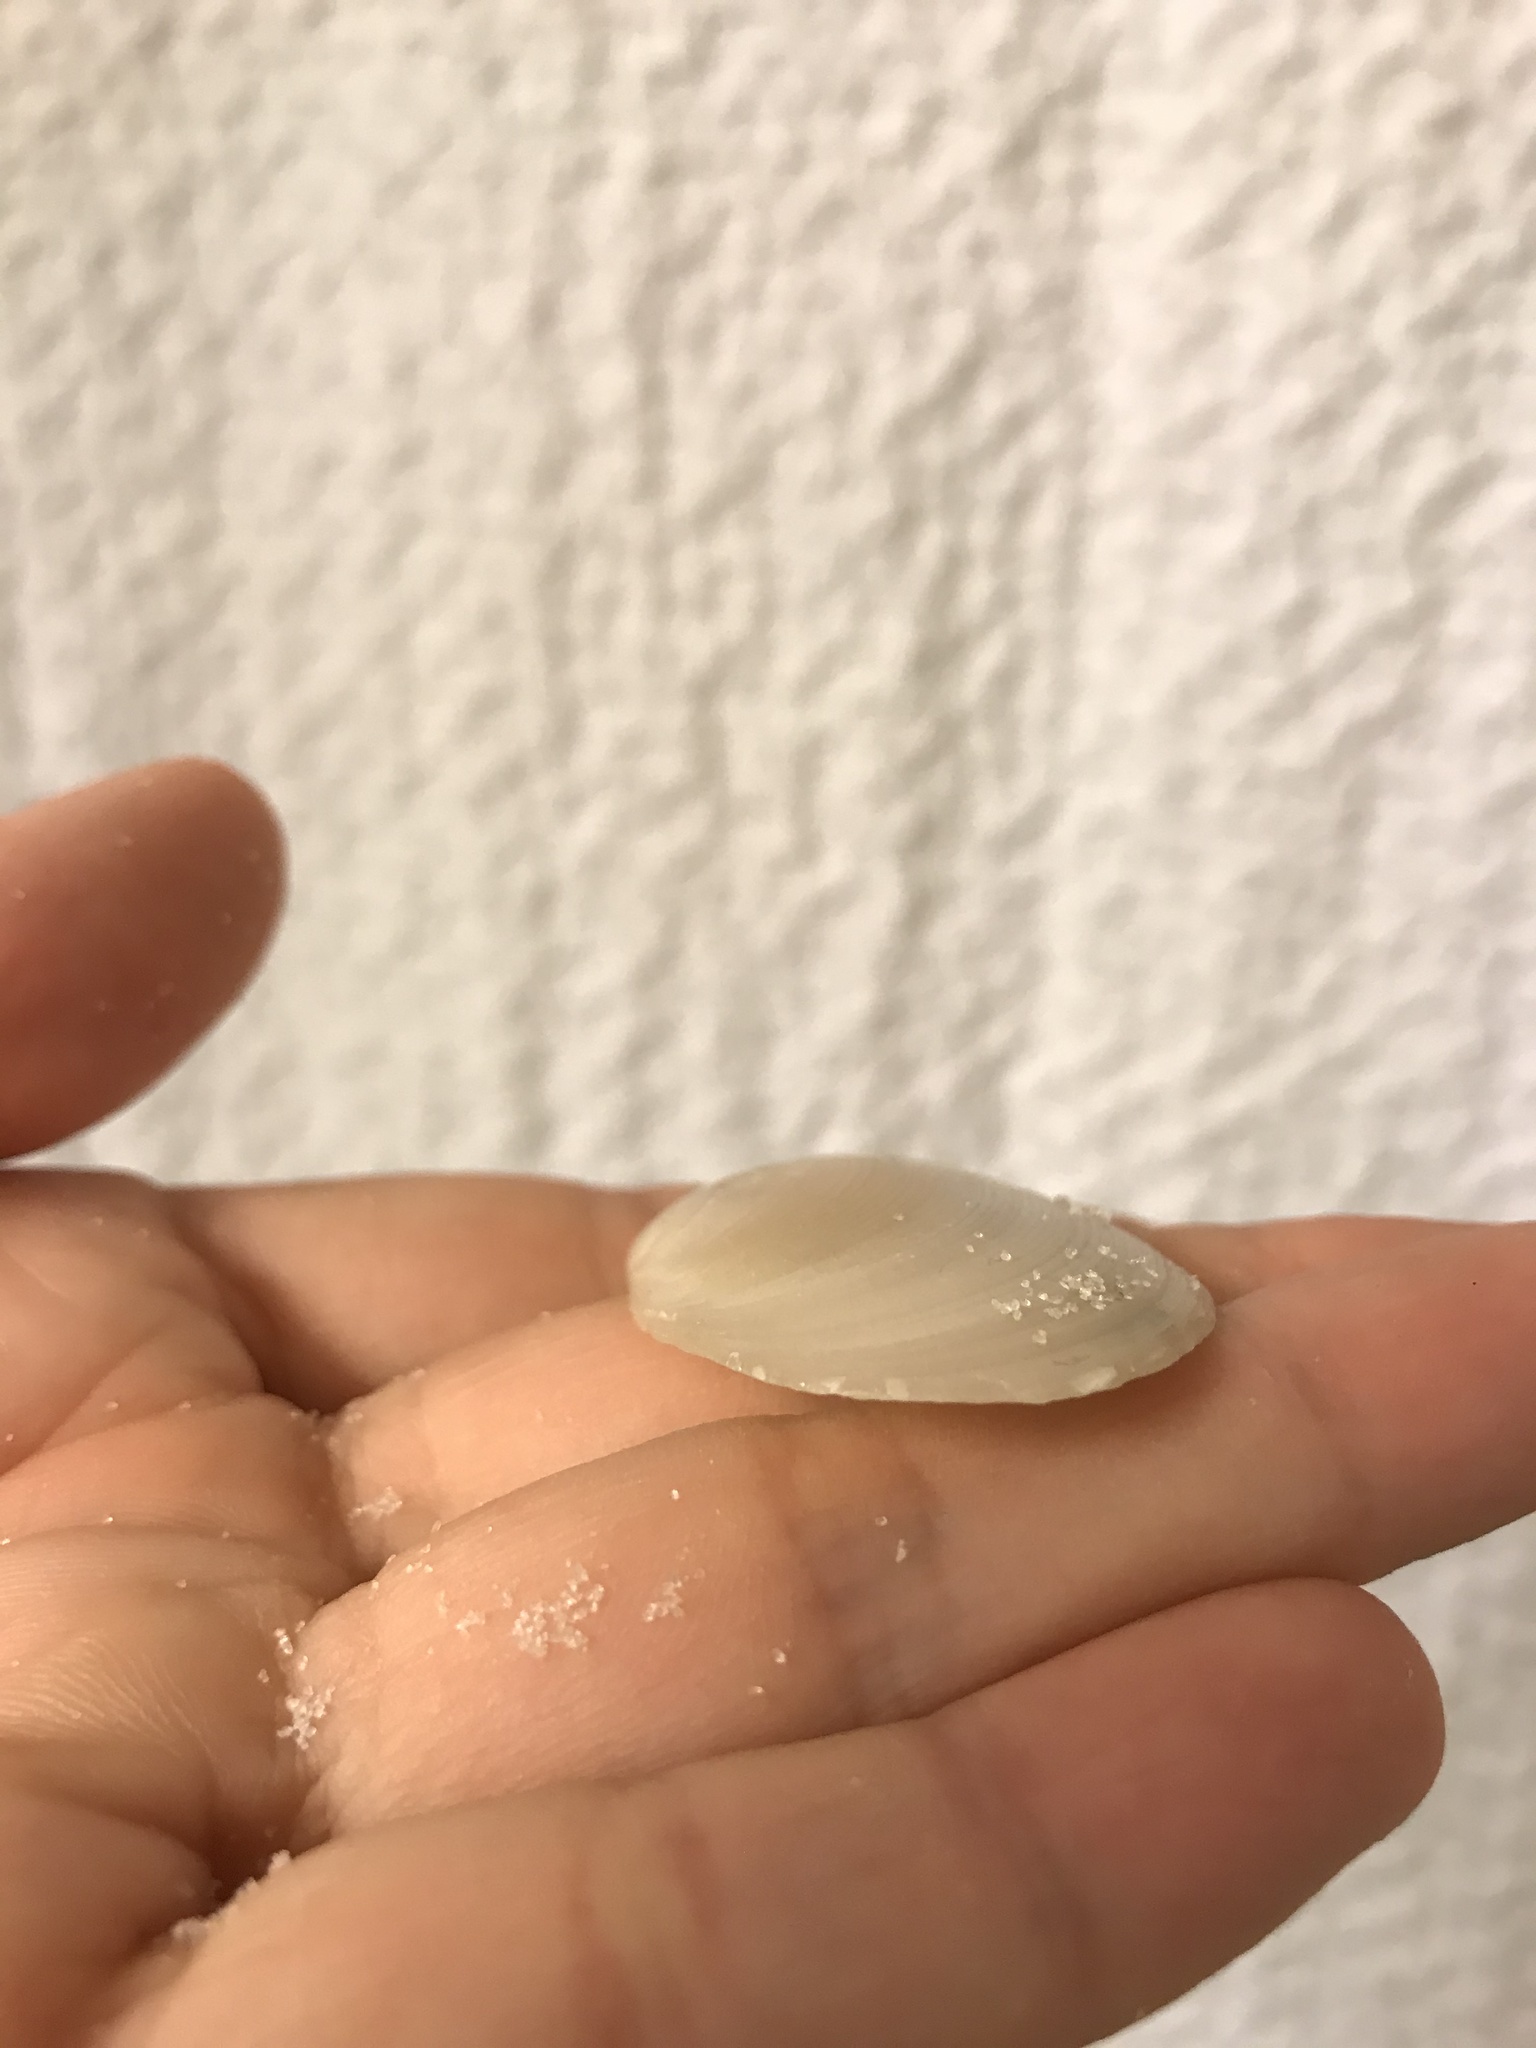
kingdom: Animalia
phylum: Mollusca
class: Bivalvia
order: Cardiida
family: Tellinidae
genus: Eurytellina
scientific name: Eurytellina alternata
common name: Alternate tellin
